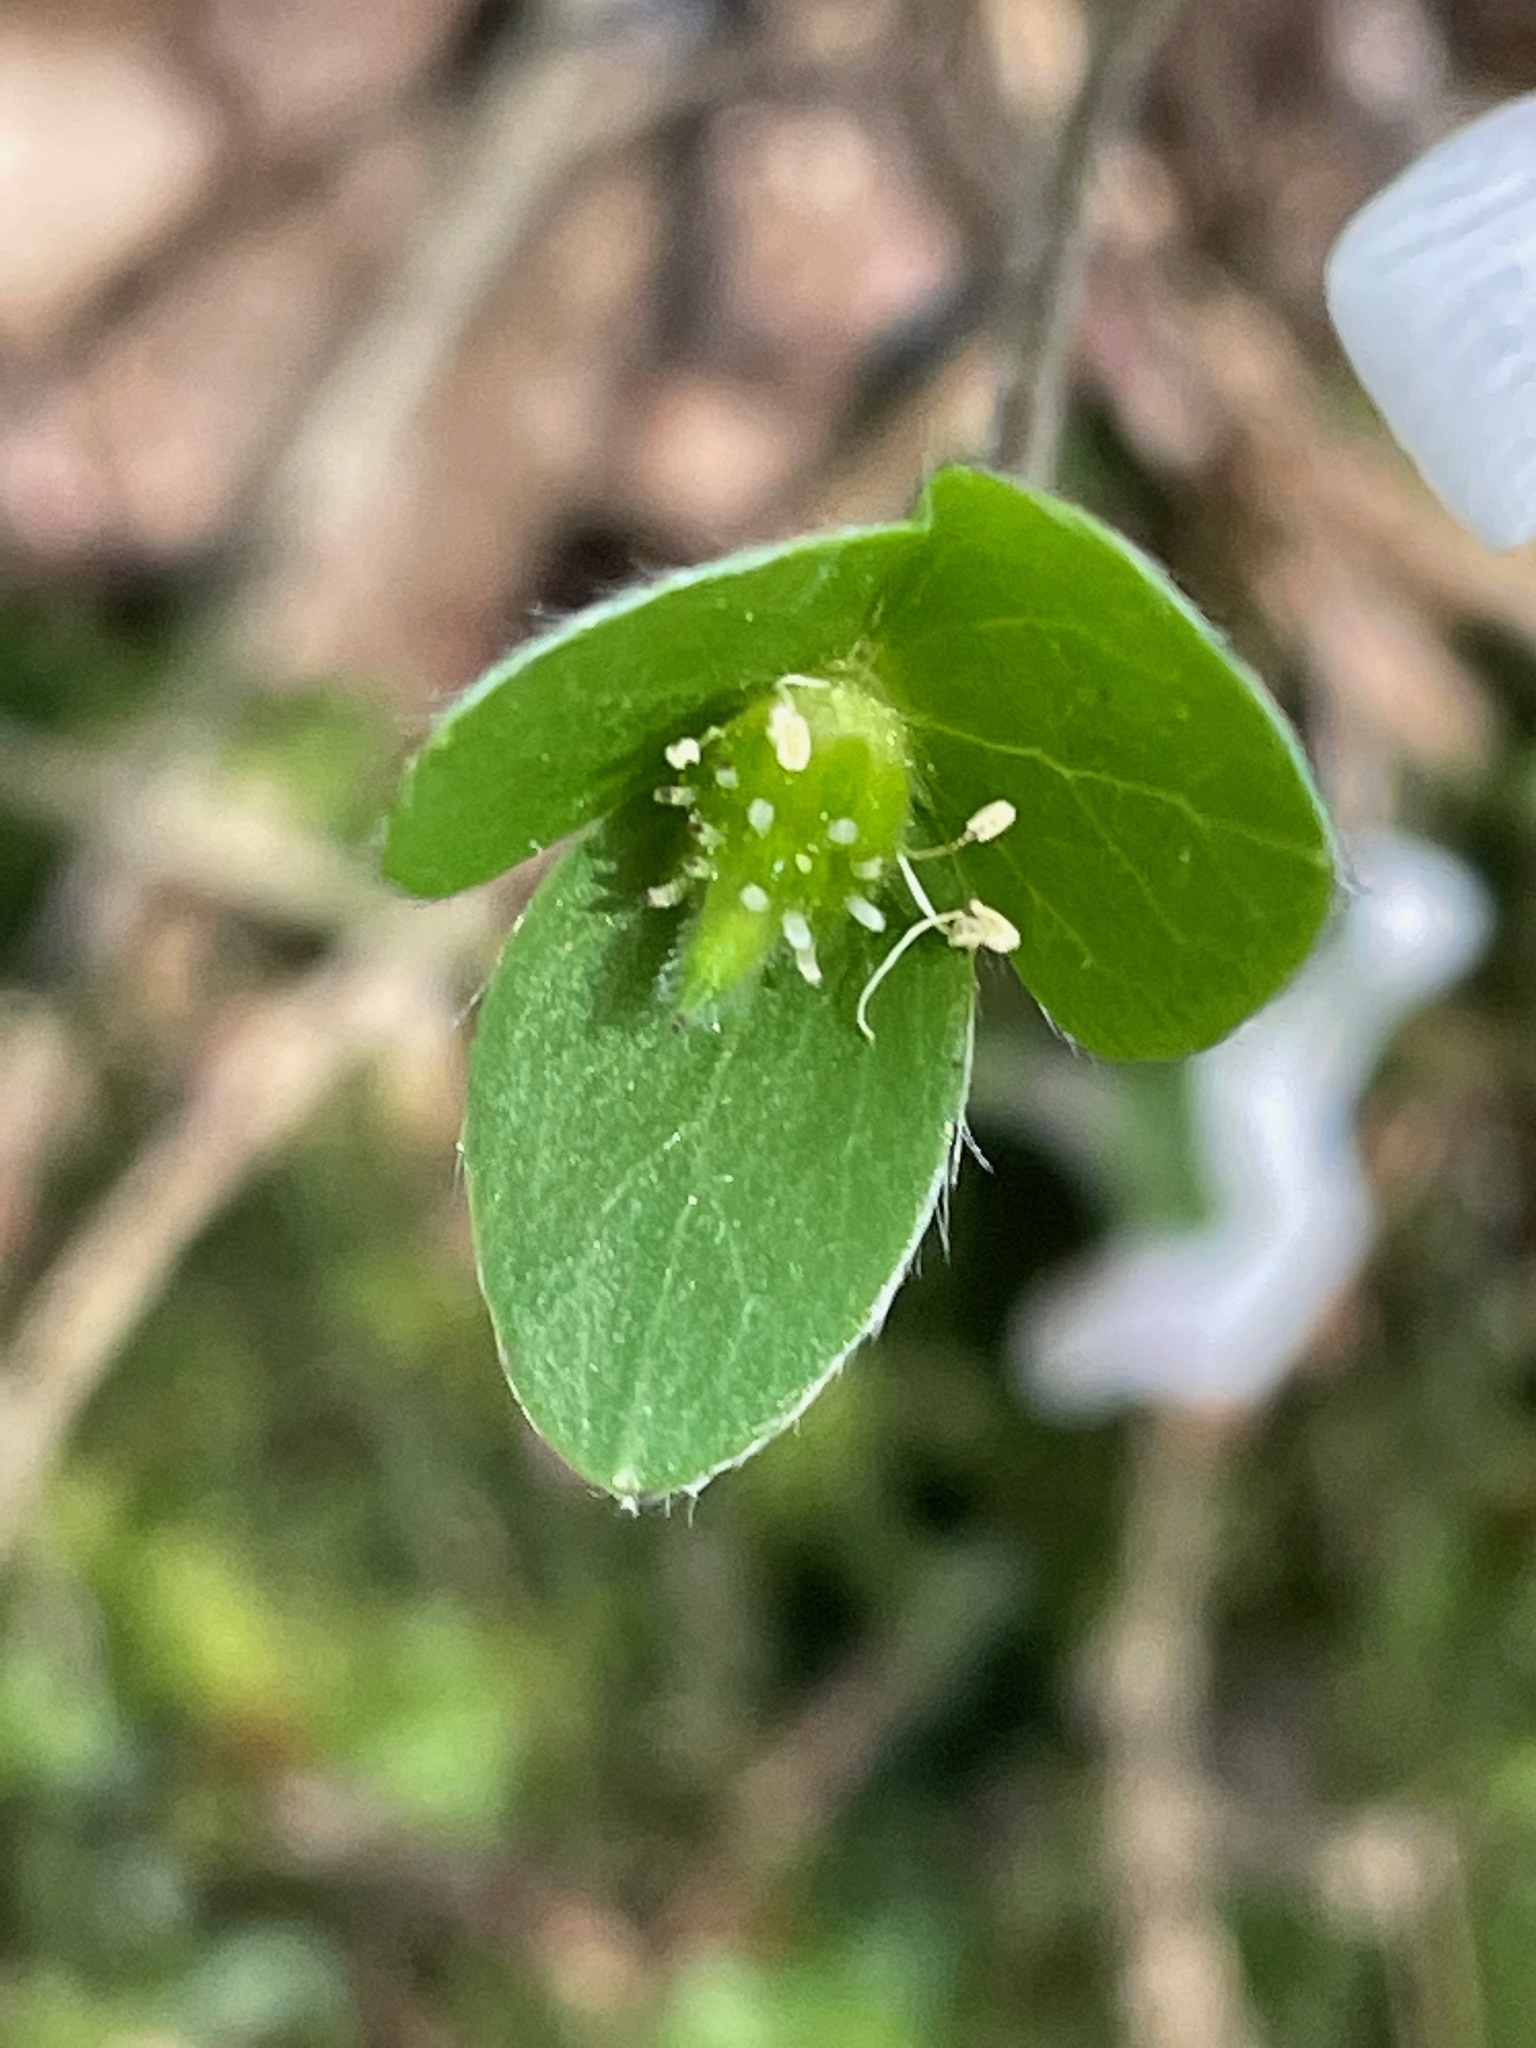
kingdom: Plantae
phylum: Tracheophyta
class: Magnoliopsida
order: Ranunculales
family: Ranunculaceae
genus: Hepatica
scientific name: Hepatica americana
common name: American hepatica
